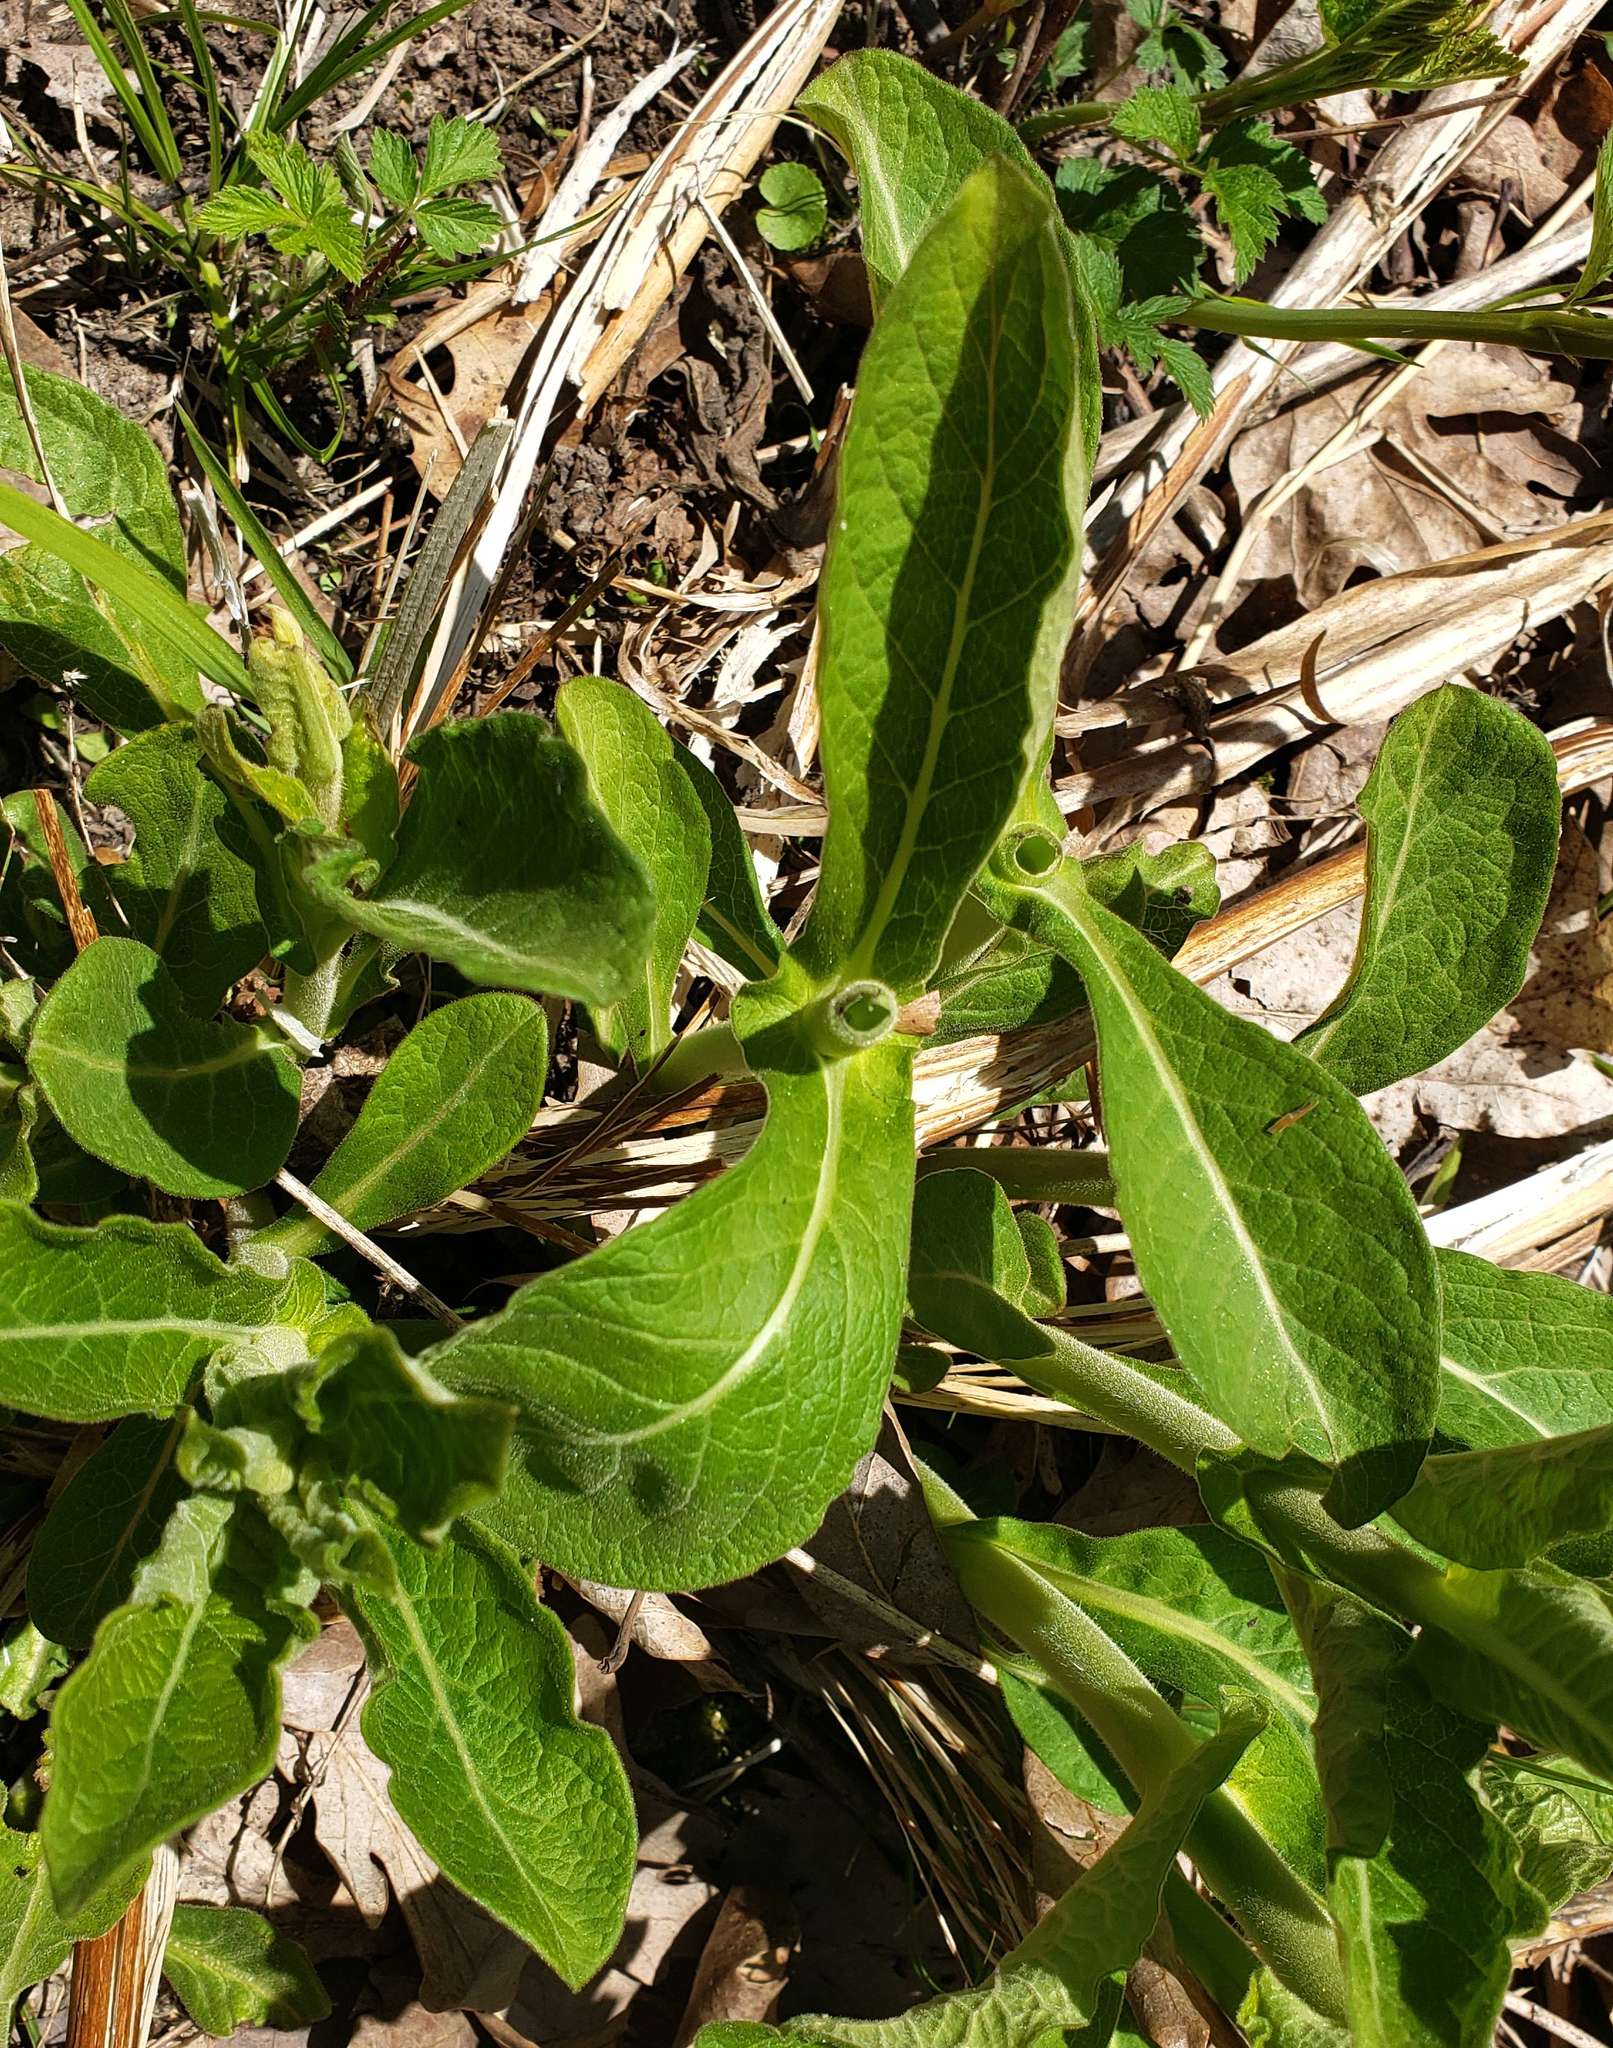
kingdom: Plantae
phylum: Tracheophyta
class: Magnoliopsida
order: Dipsacales
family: Caprifoliaceae
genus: Triosteum
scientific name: Triosteum perfoliatum
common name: Common horse-gentian
